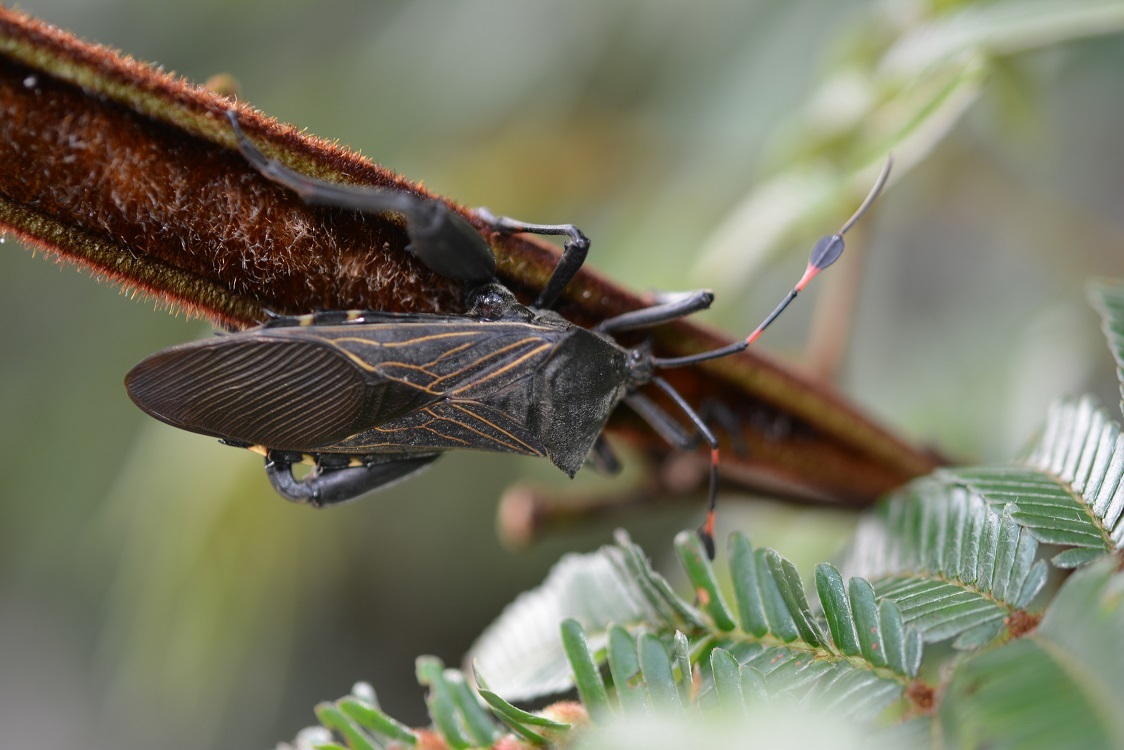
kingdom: Animalia
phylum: Arthropoda
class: Insecta
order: Hemiptera
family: Coreidae
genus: Thasus
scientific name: Thasus acutangulus
